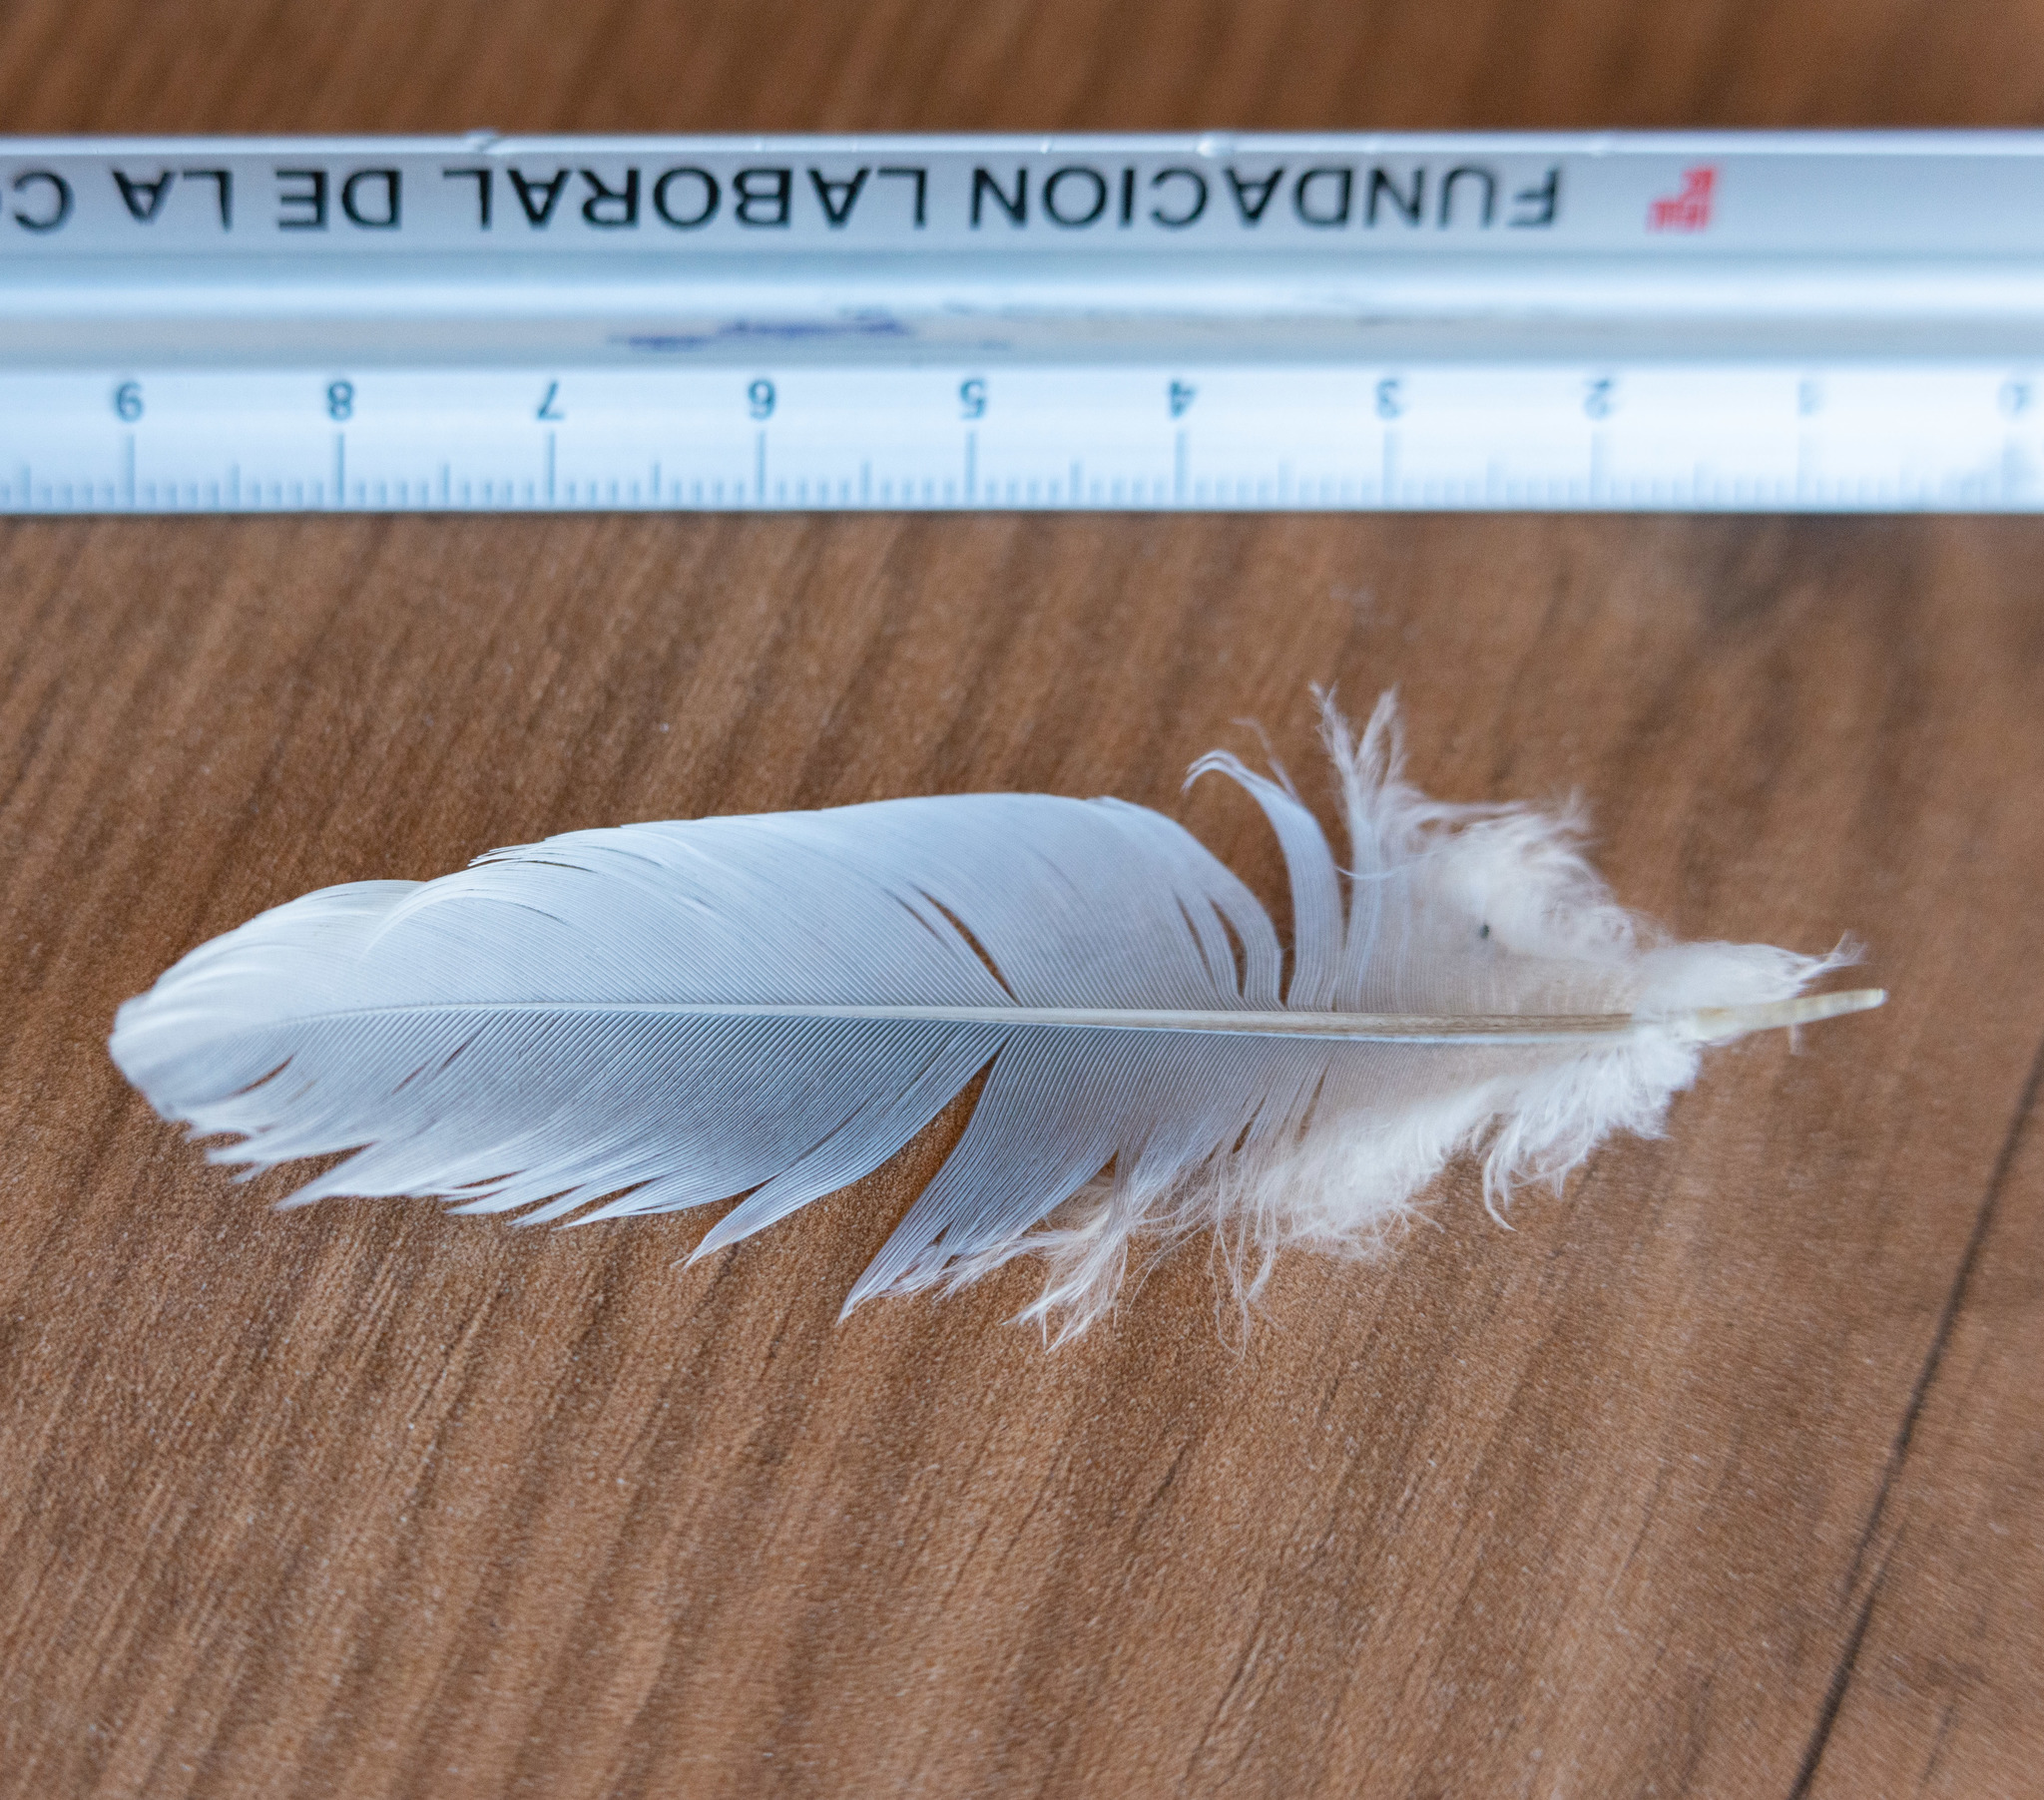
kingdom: Animalia
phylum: Chordata
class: Aves
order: Columbiformes
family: Columbidae
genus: Columba
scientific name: Columba palumbus
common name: Common wood pigeon
